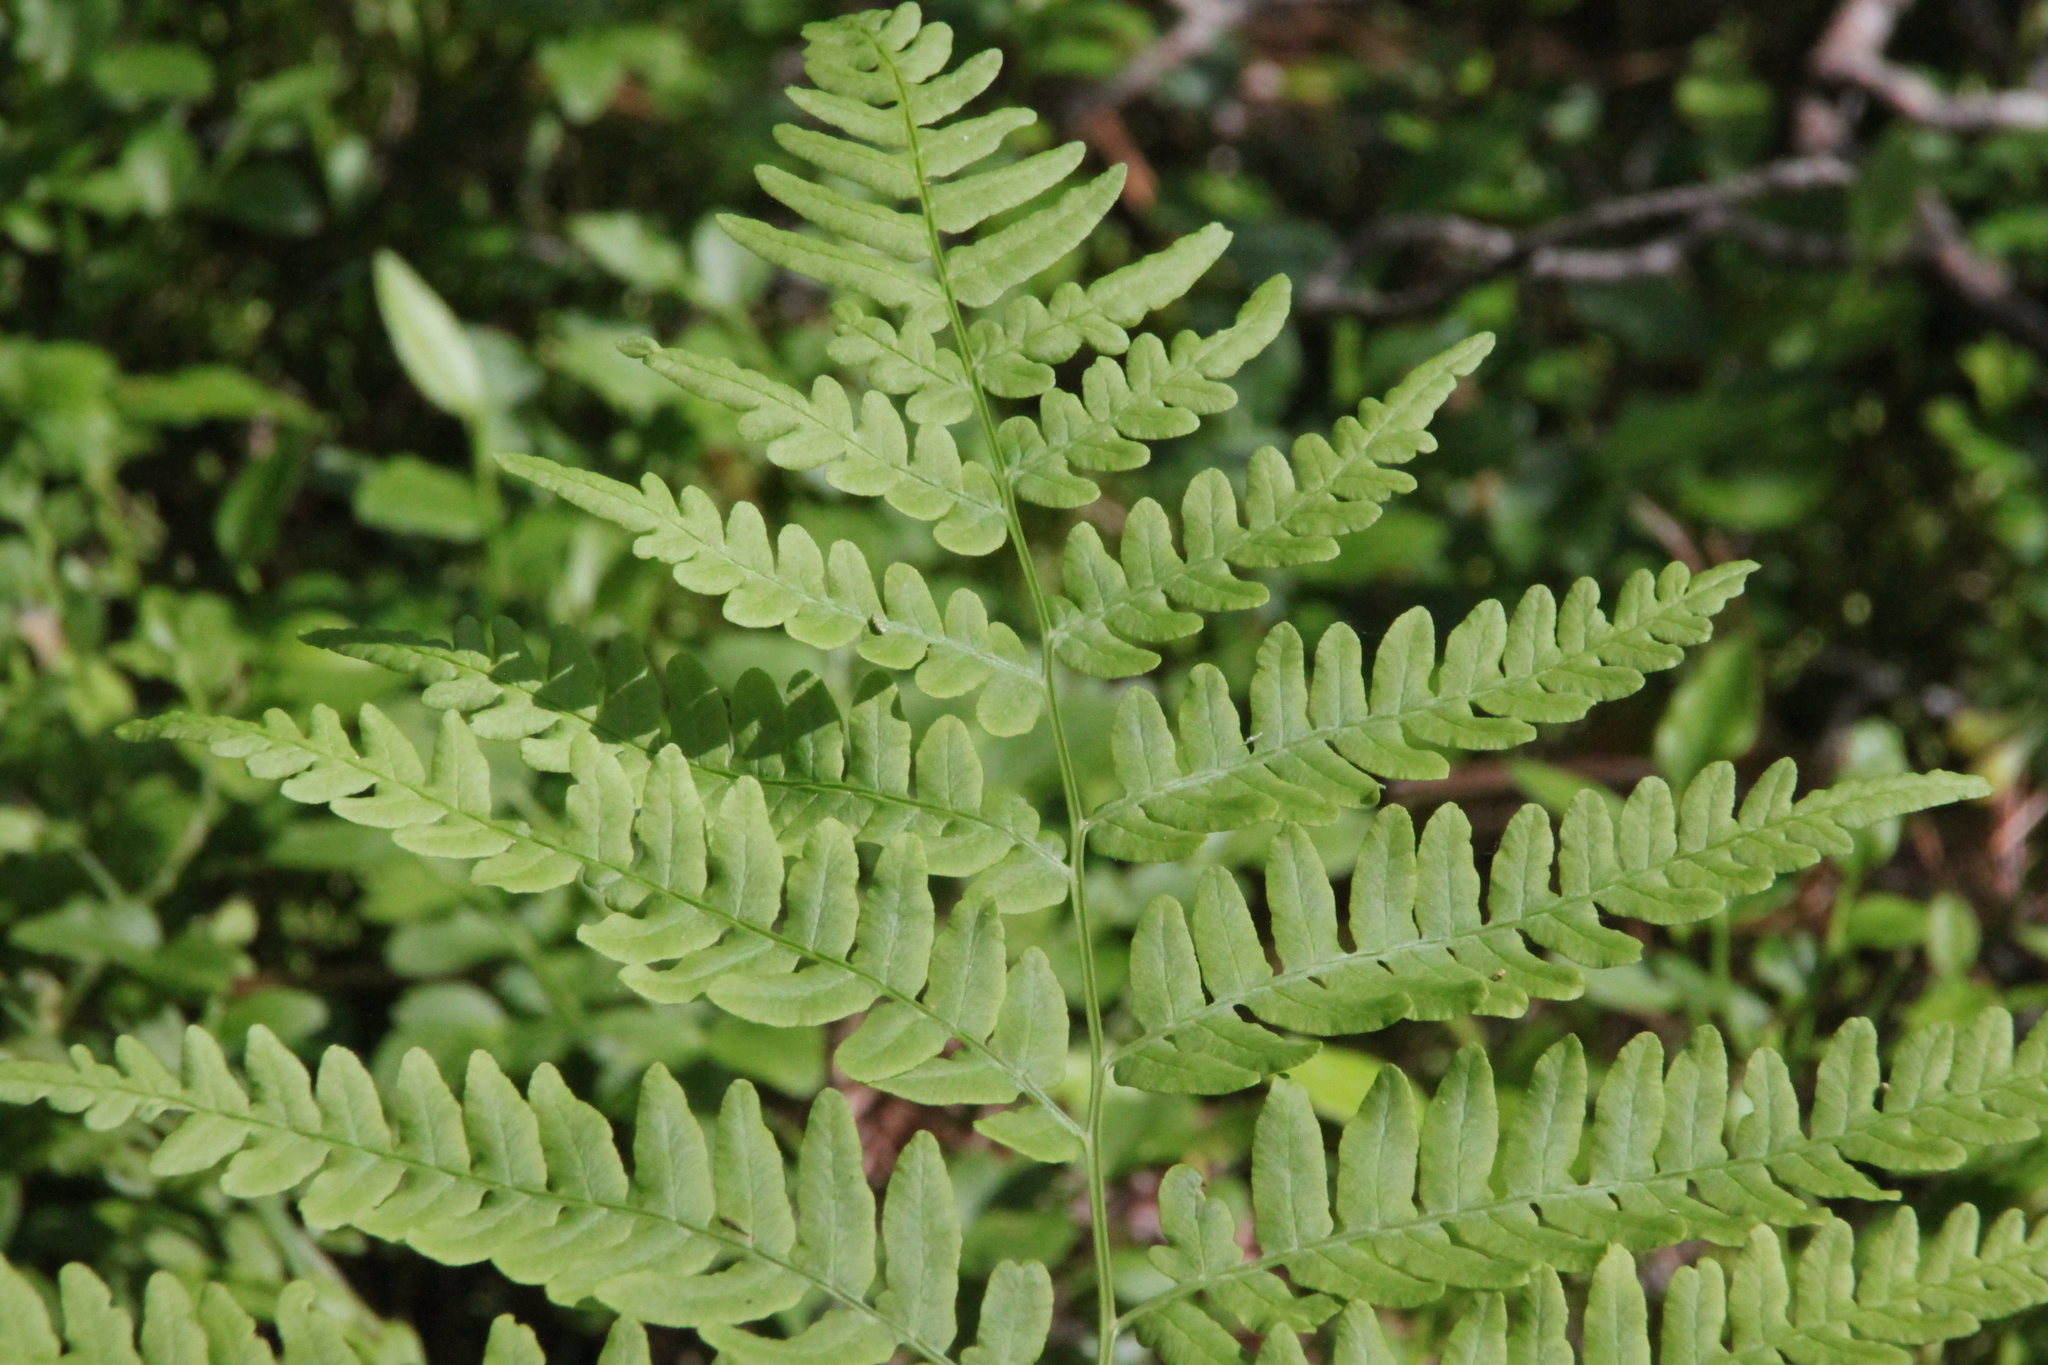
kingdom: Plantae
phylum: Tracheophyta
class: Polypodiopsida
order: Polypodiales
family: Dennstaedtiaceae
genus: Pteridium
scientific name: Pteridium aquilinum
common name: Bracken
